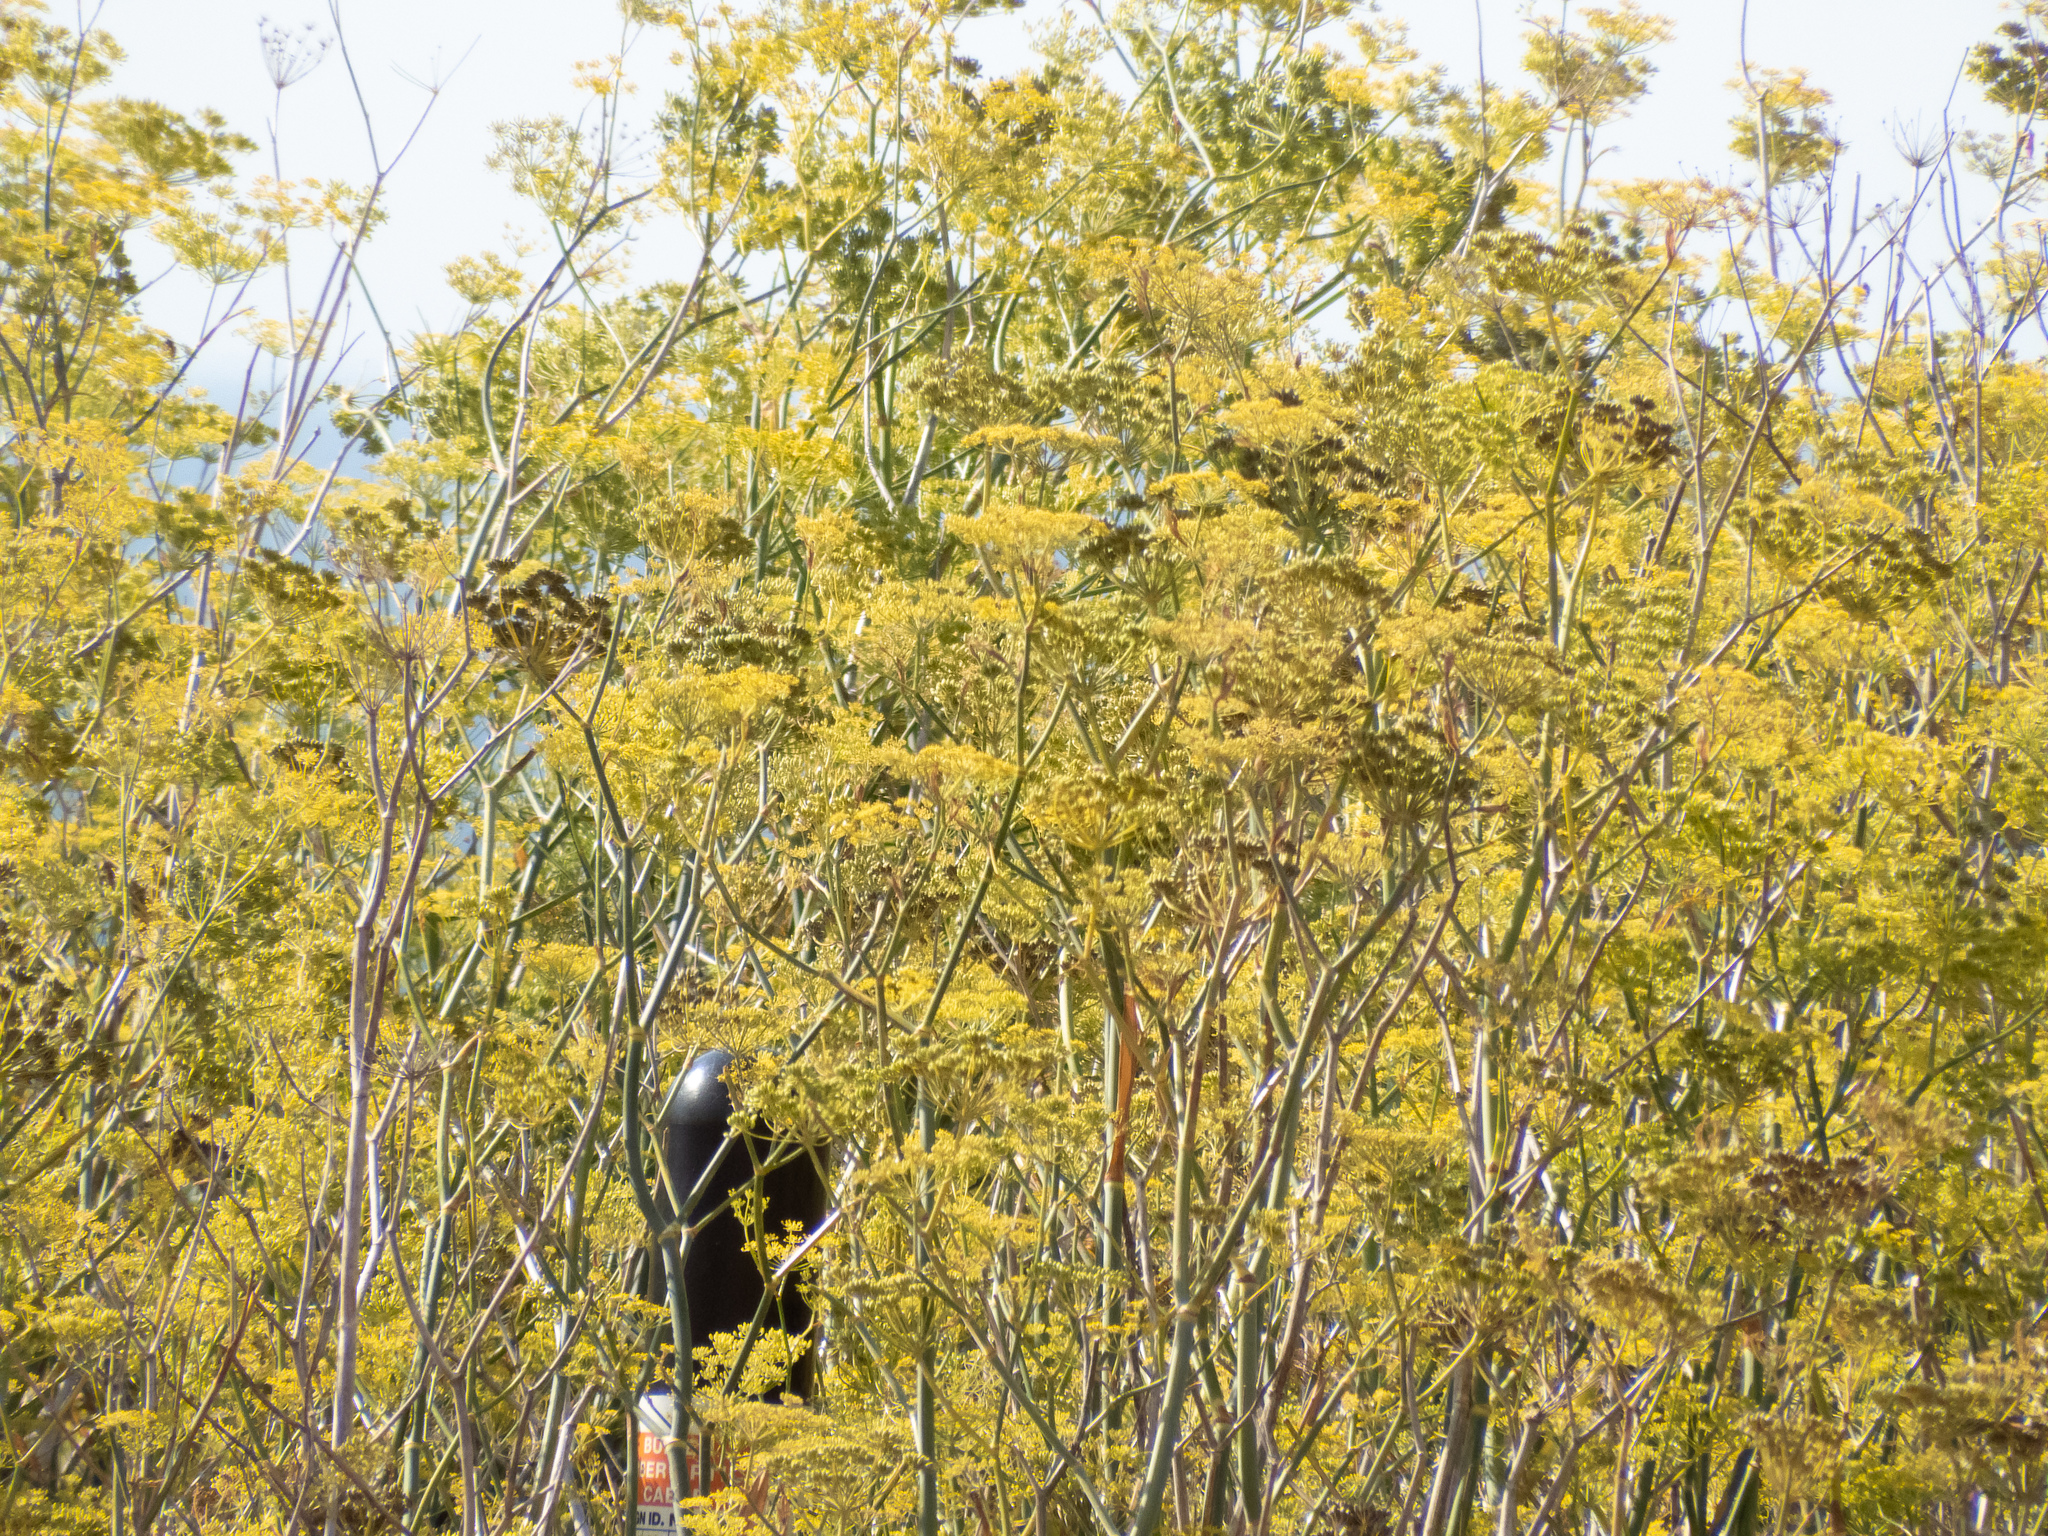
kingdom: Plantae
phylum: Tracheophyta
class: Magnoliopsida
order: Apiales
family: Apiaceae
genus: Foeniculum
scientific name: Foeniculum vulgare
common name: Fennel
